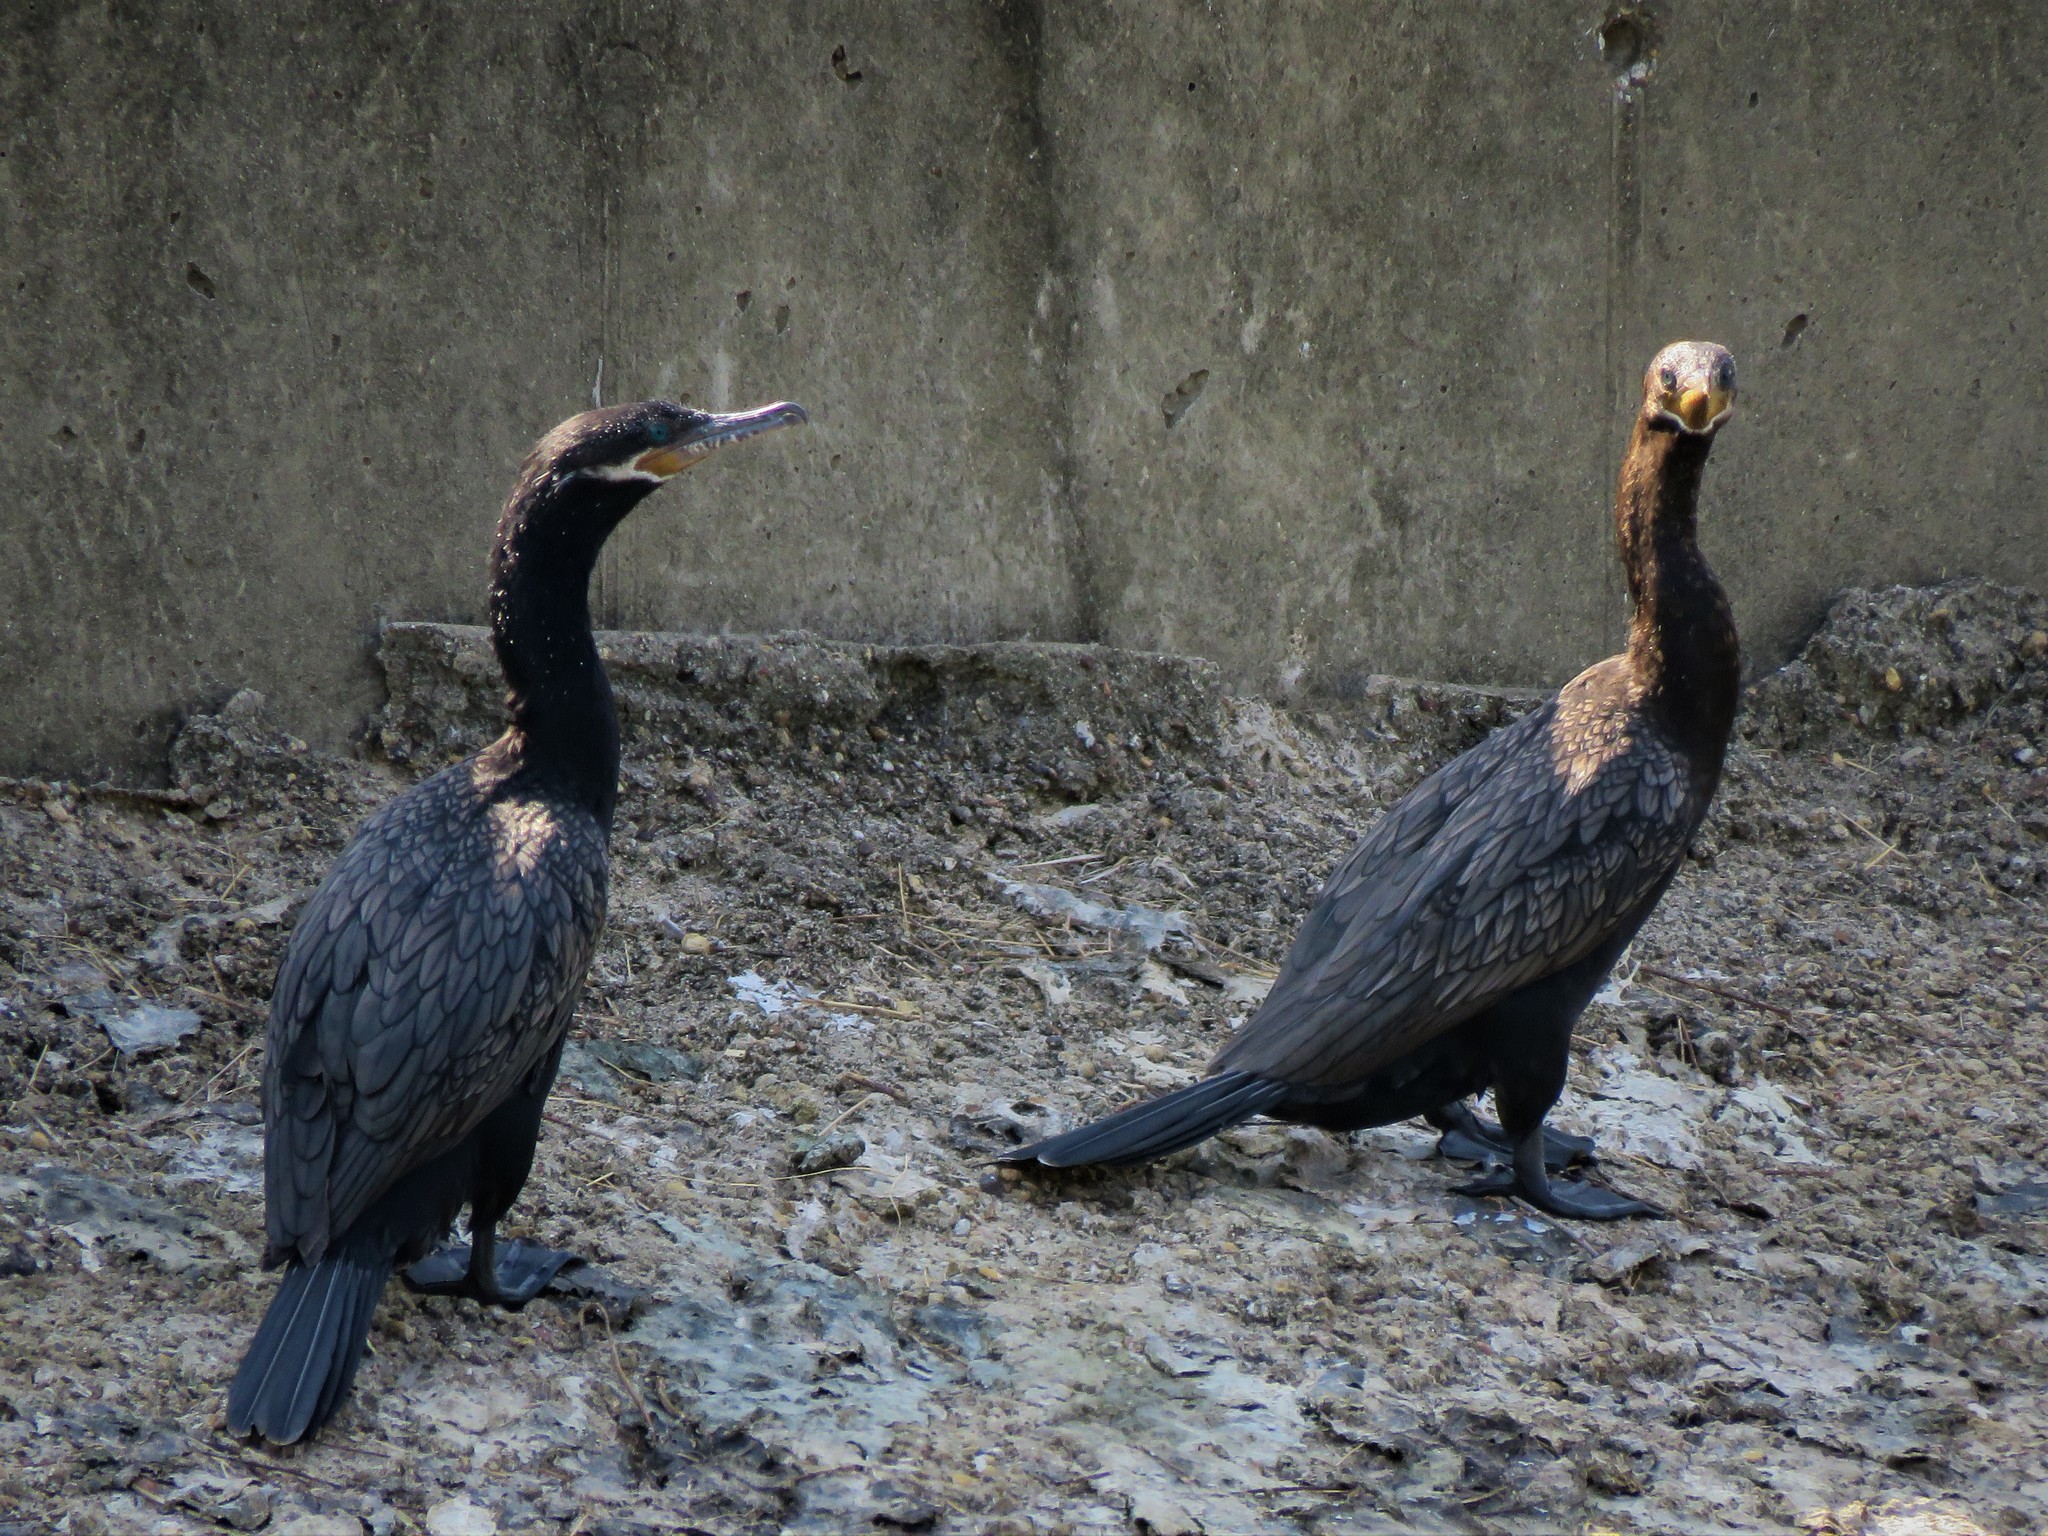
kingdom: Animalia
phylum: Chordata
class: Aves
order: Suliformes
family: Phalacrocoracidae
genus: Phalacrocorax
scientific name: Phalacrocorax brasilianus
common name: Neotropic cormorant
